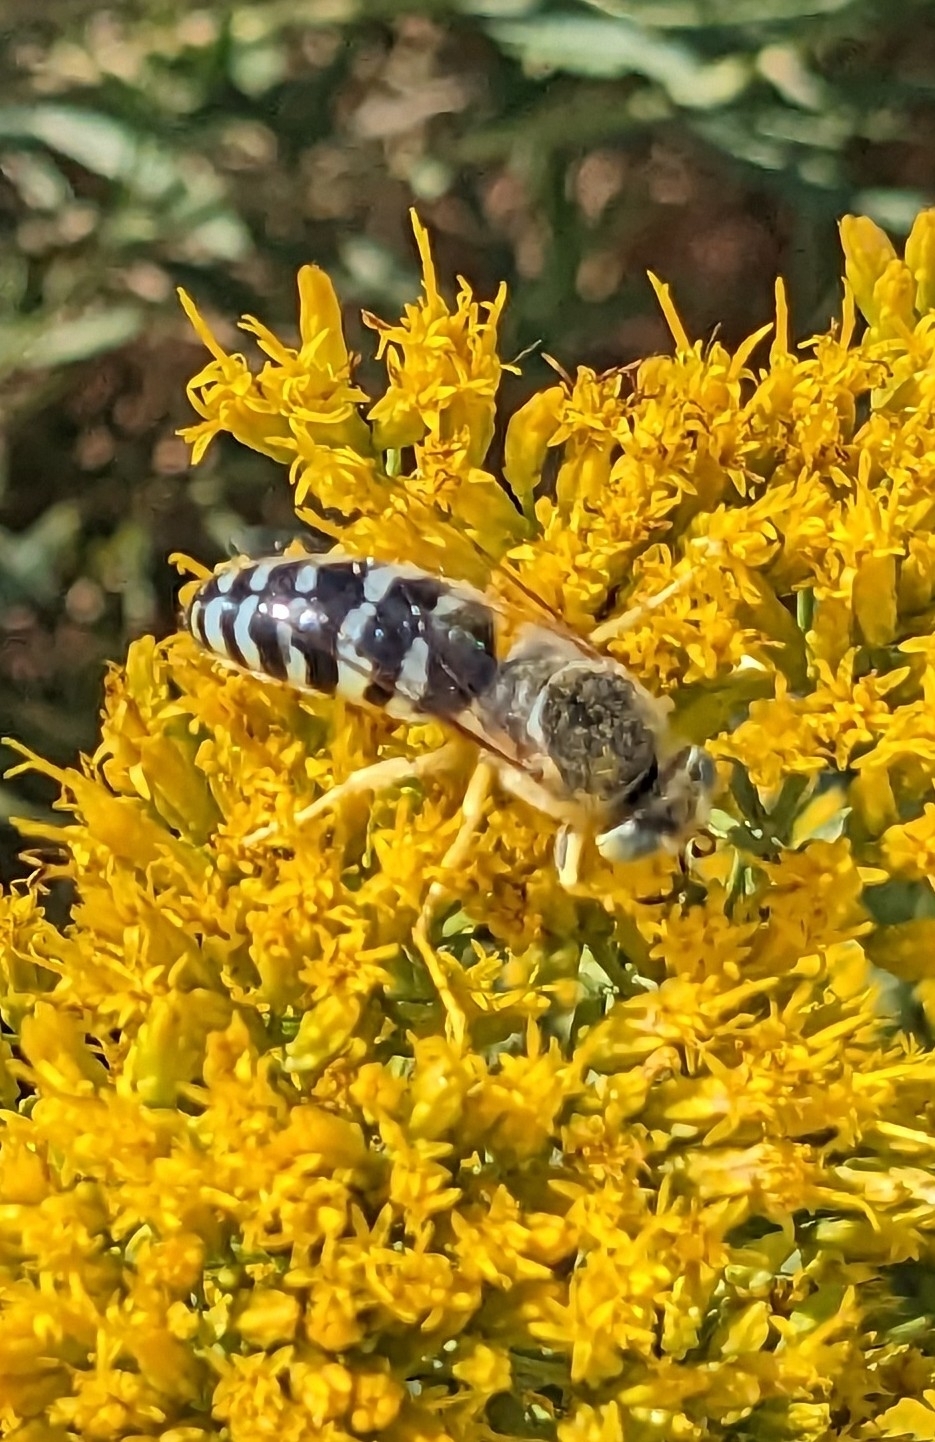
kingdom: Animalia
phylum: Arthropoda
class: Insecta
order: Hymenoptera
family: Crabronidae
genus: Bembix
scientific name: Bembix americana
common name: American sand wasp
